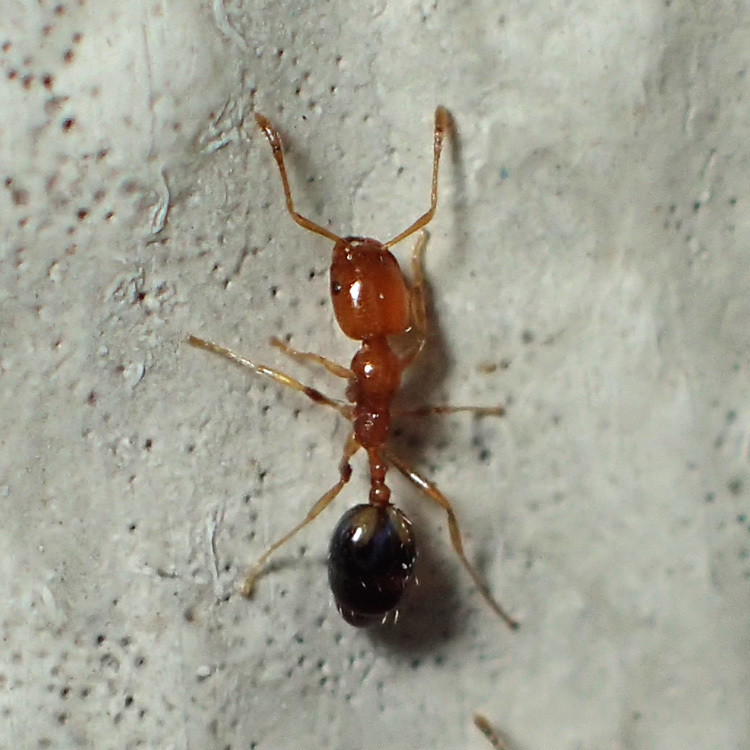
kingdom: Animalia
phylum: Arthropoda
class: Insecta
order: Hymenoptera
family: Formicidae
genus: Monomorium
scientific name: Monomorium destructor
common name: Destructive trailing ant
